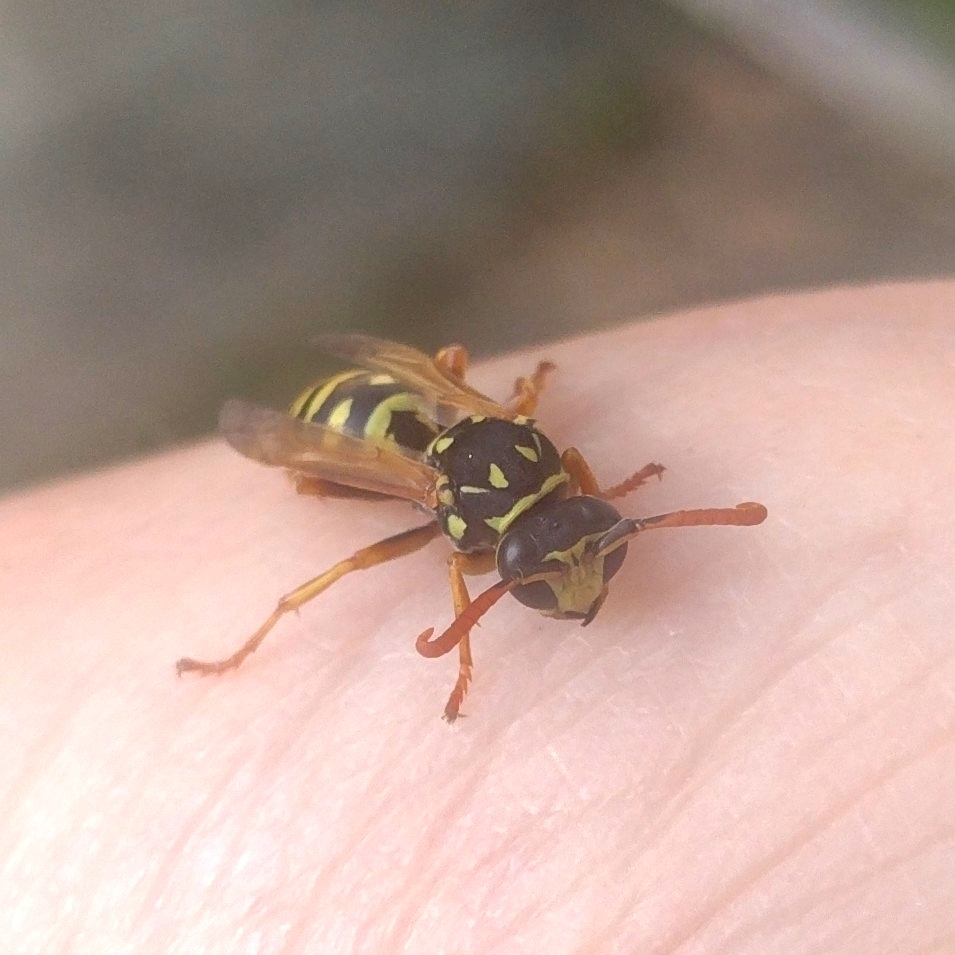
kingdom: Animalia
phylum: Arthropoda
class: Insecta
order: Hymenoptera
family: Eumenidae
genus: Polistes
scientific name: Polistes dominula
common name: Paper wasp
